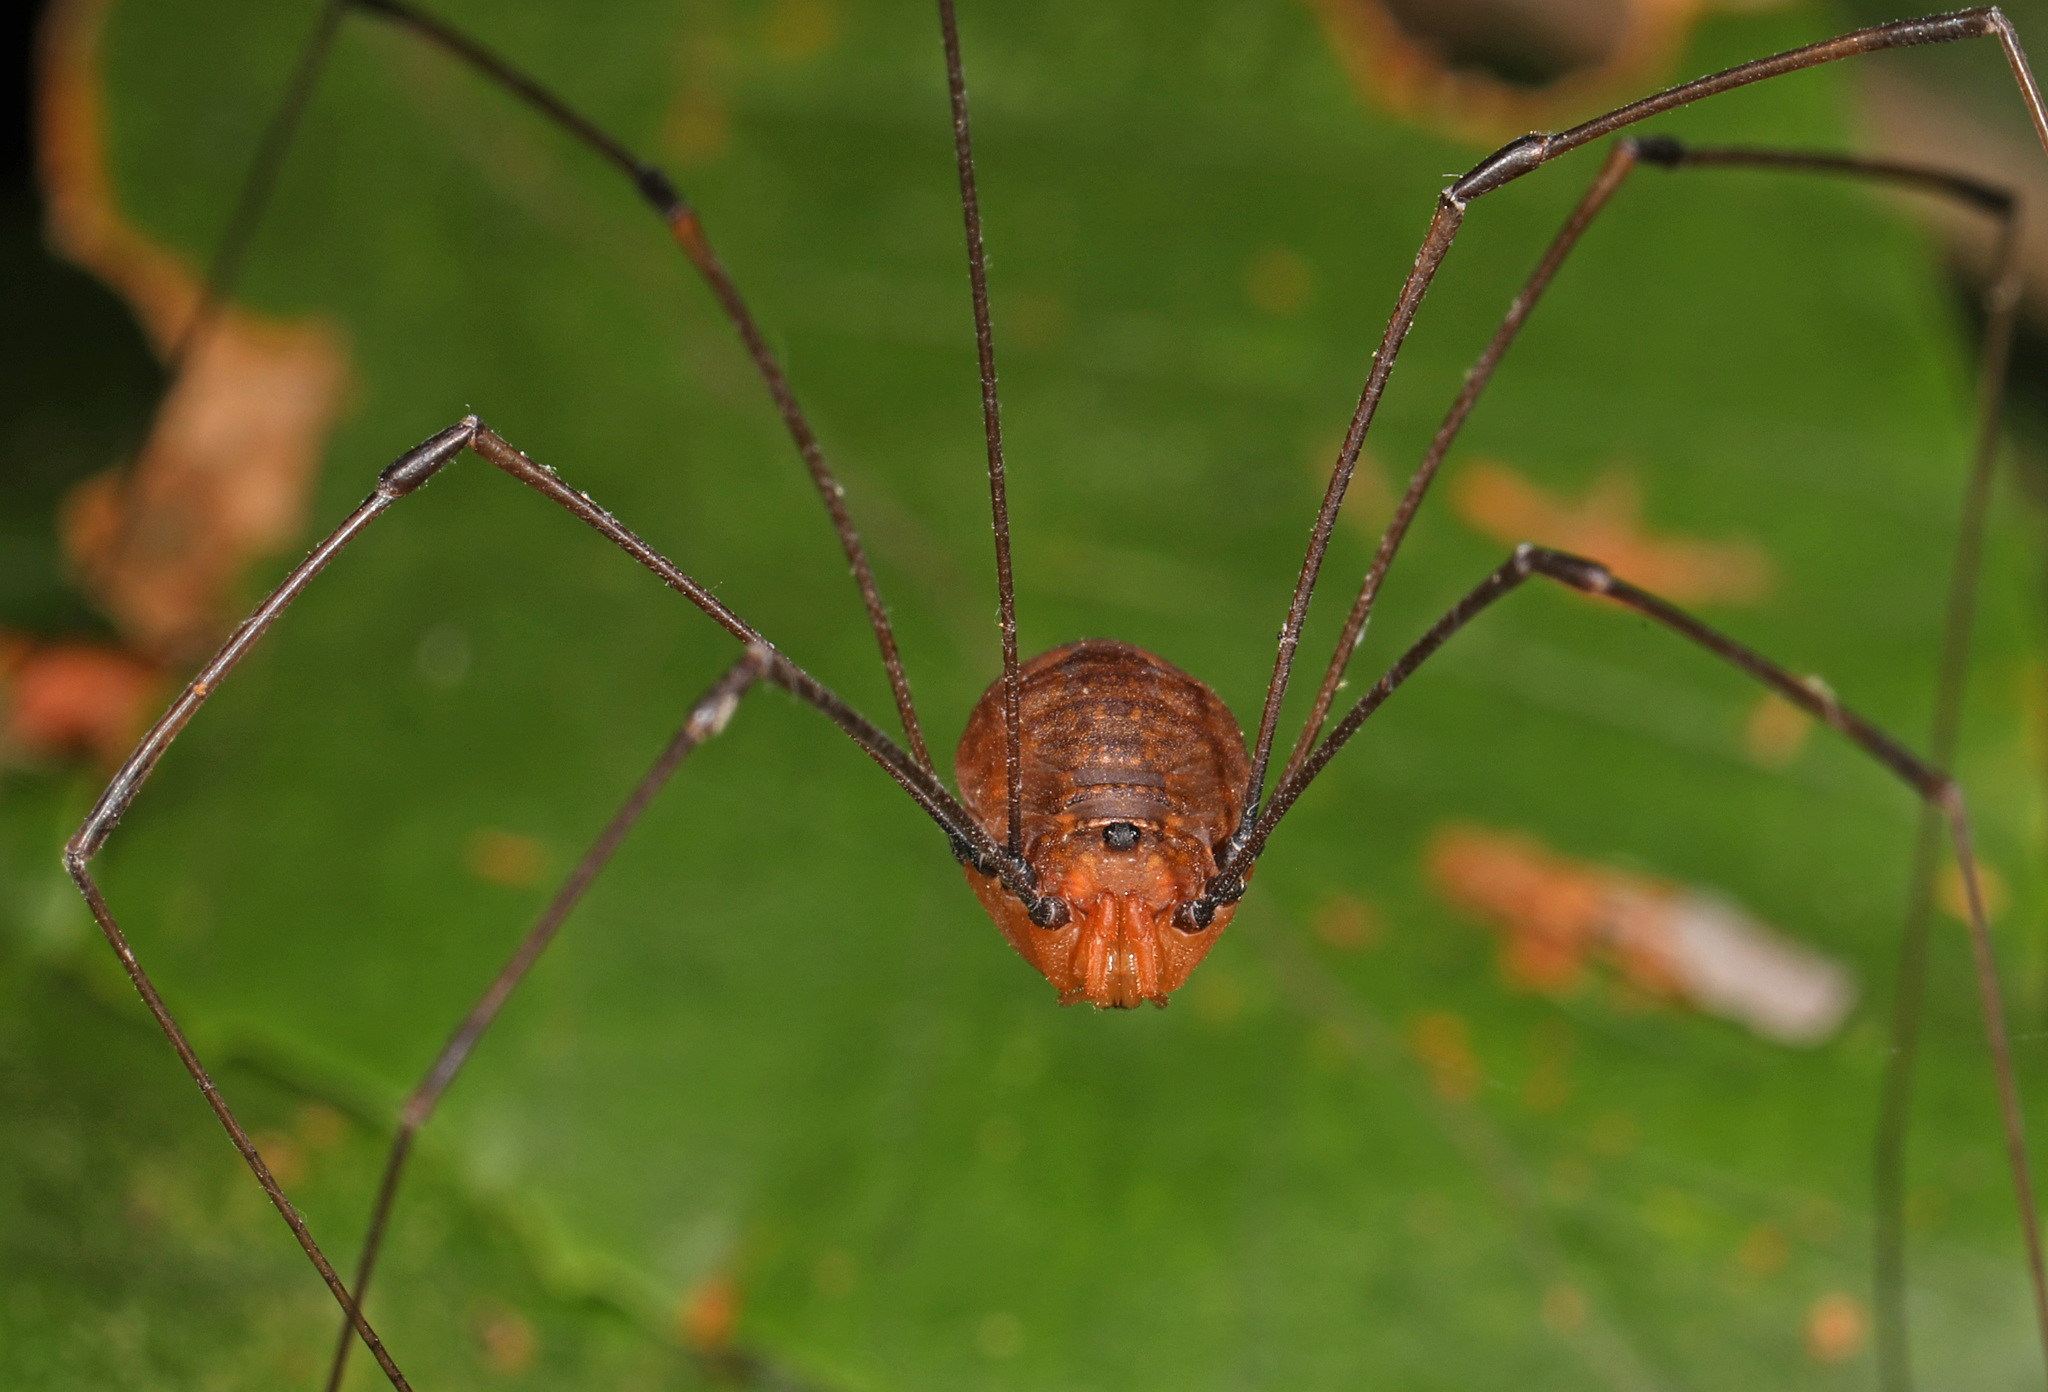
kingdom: Animalia
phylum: Arthropoda
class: Arachnida
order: Opiliones
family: Sclerosomatidae
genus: Leiobunum
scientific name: Leiobunum uxorium
